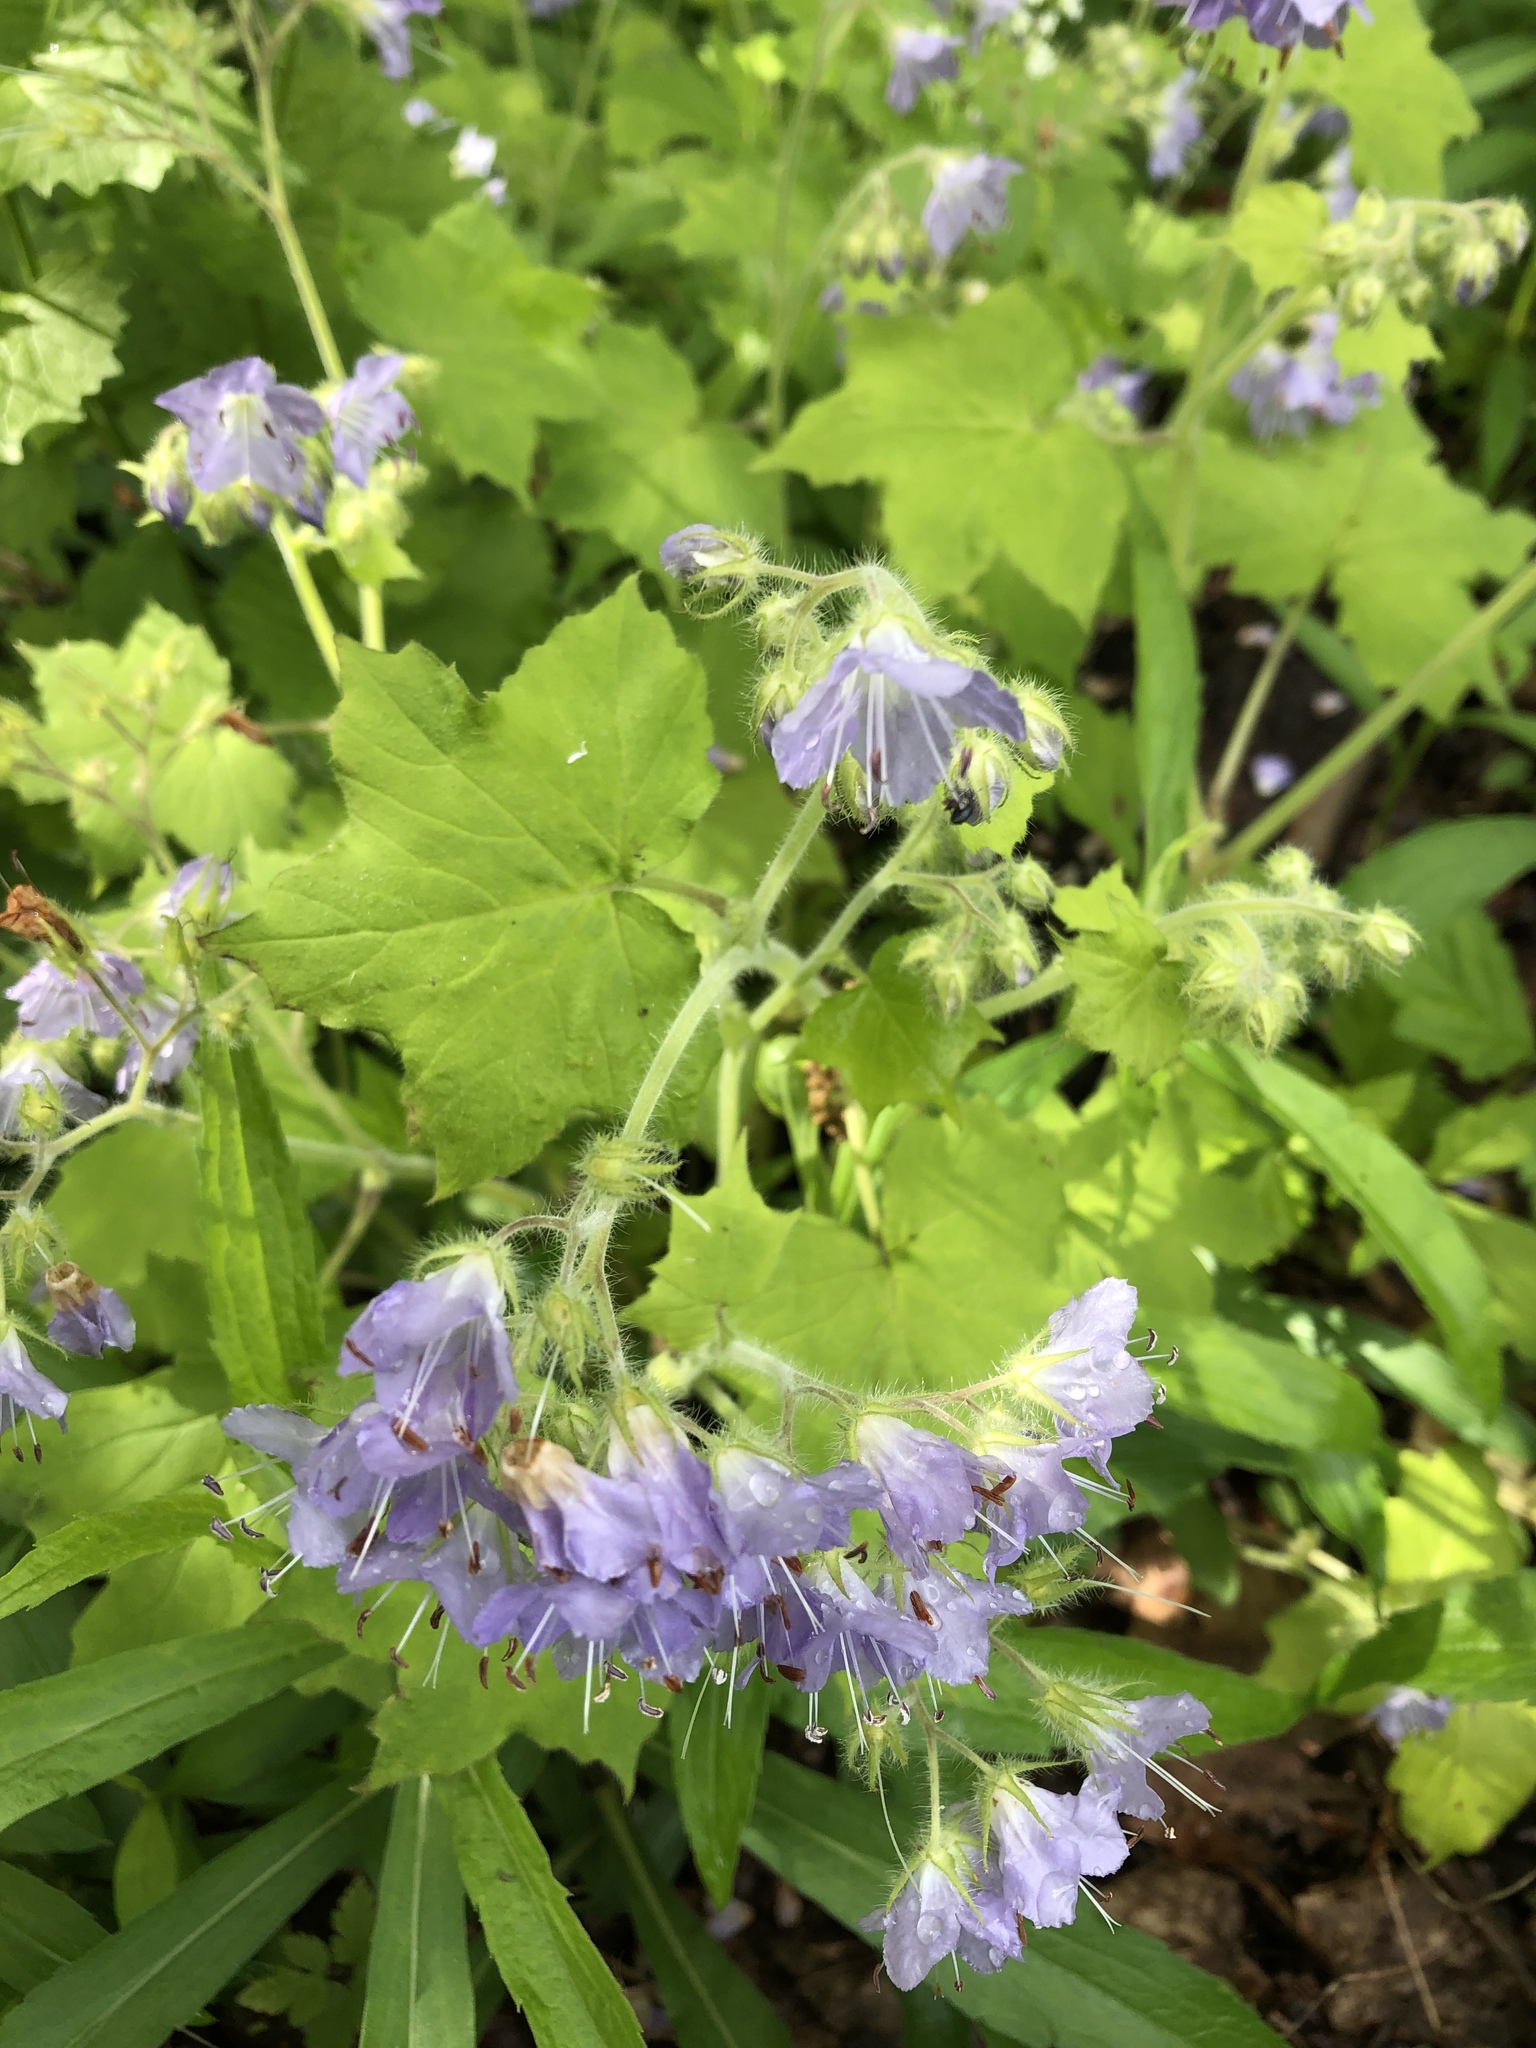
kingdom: Plantae
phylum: Tracheophyta
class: Magnoliopsida
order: Boraginales
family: Hydrophyllaceae
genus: Hydrophyllum
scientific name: Hydrophyllum appendiculatum
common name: Appendaged waterleaf
